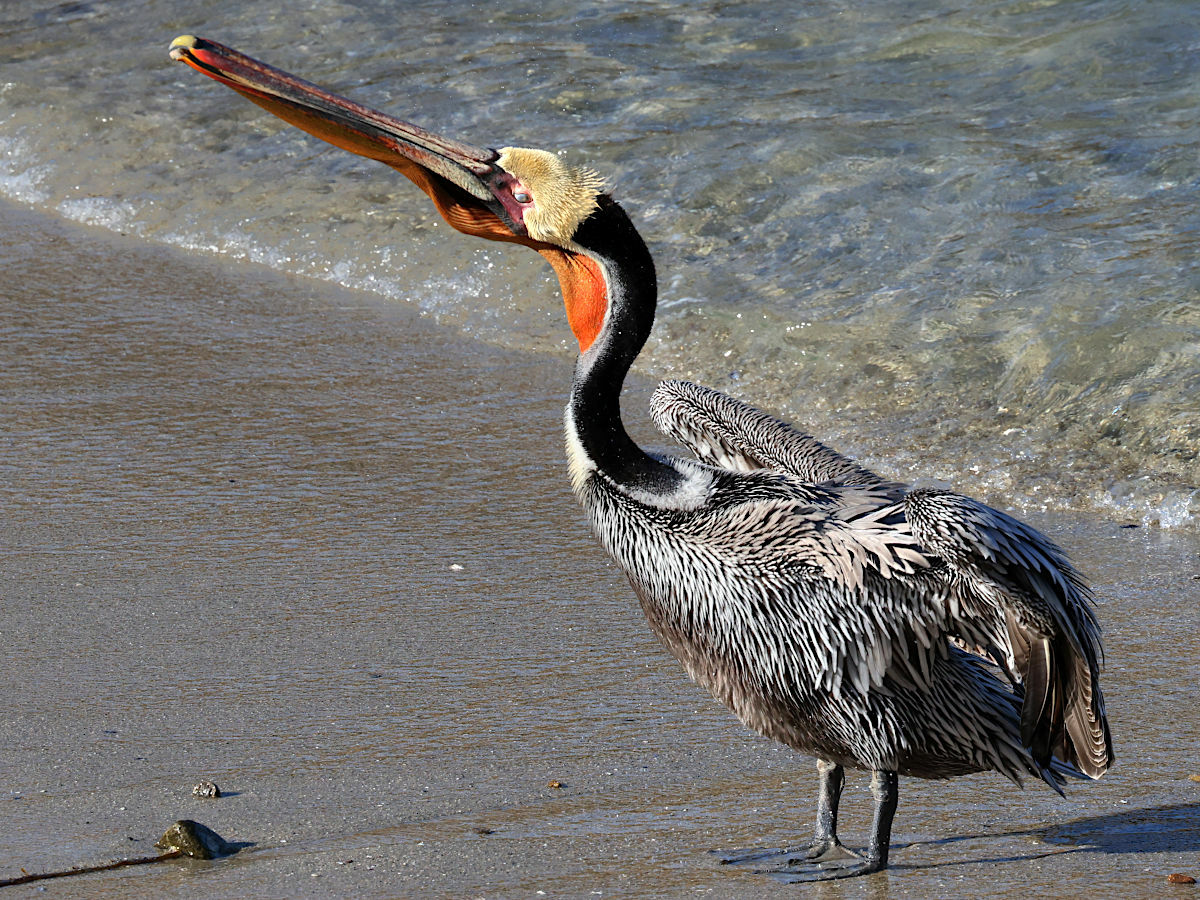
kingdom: Animalia
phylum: Chordata
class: Aves
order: Pelecaniformes
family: Pelecanidae
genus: Pelecanus
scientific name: Pelecanus occidentalis
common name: Brown pelican
